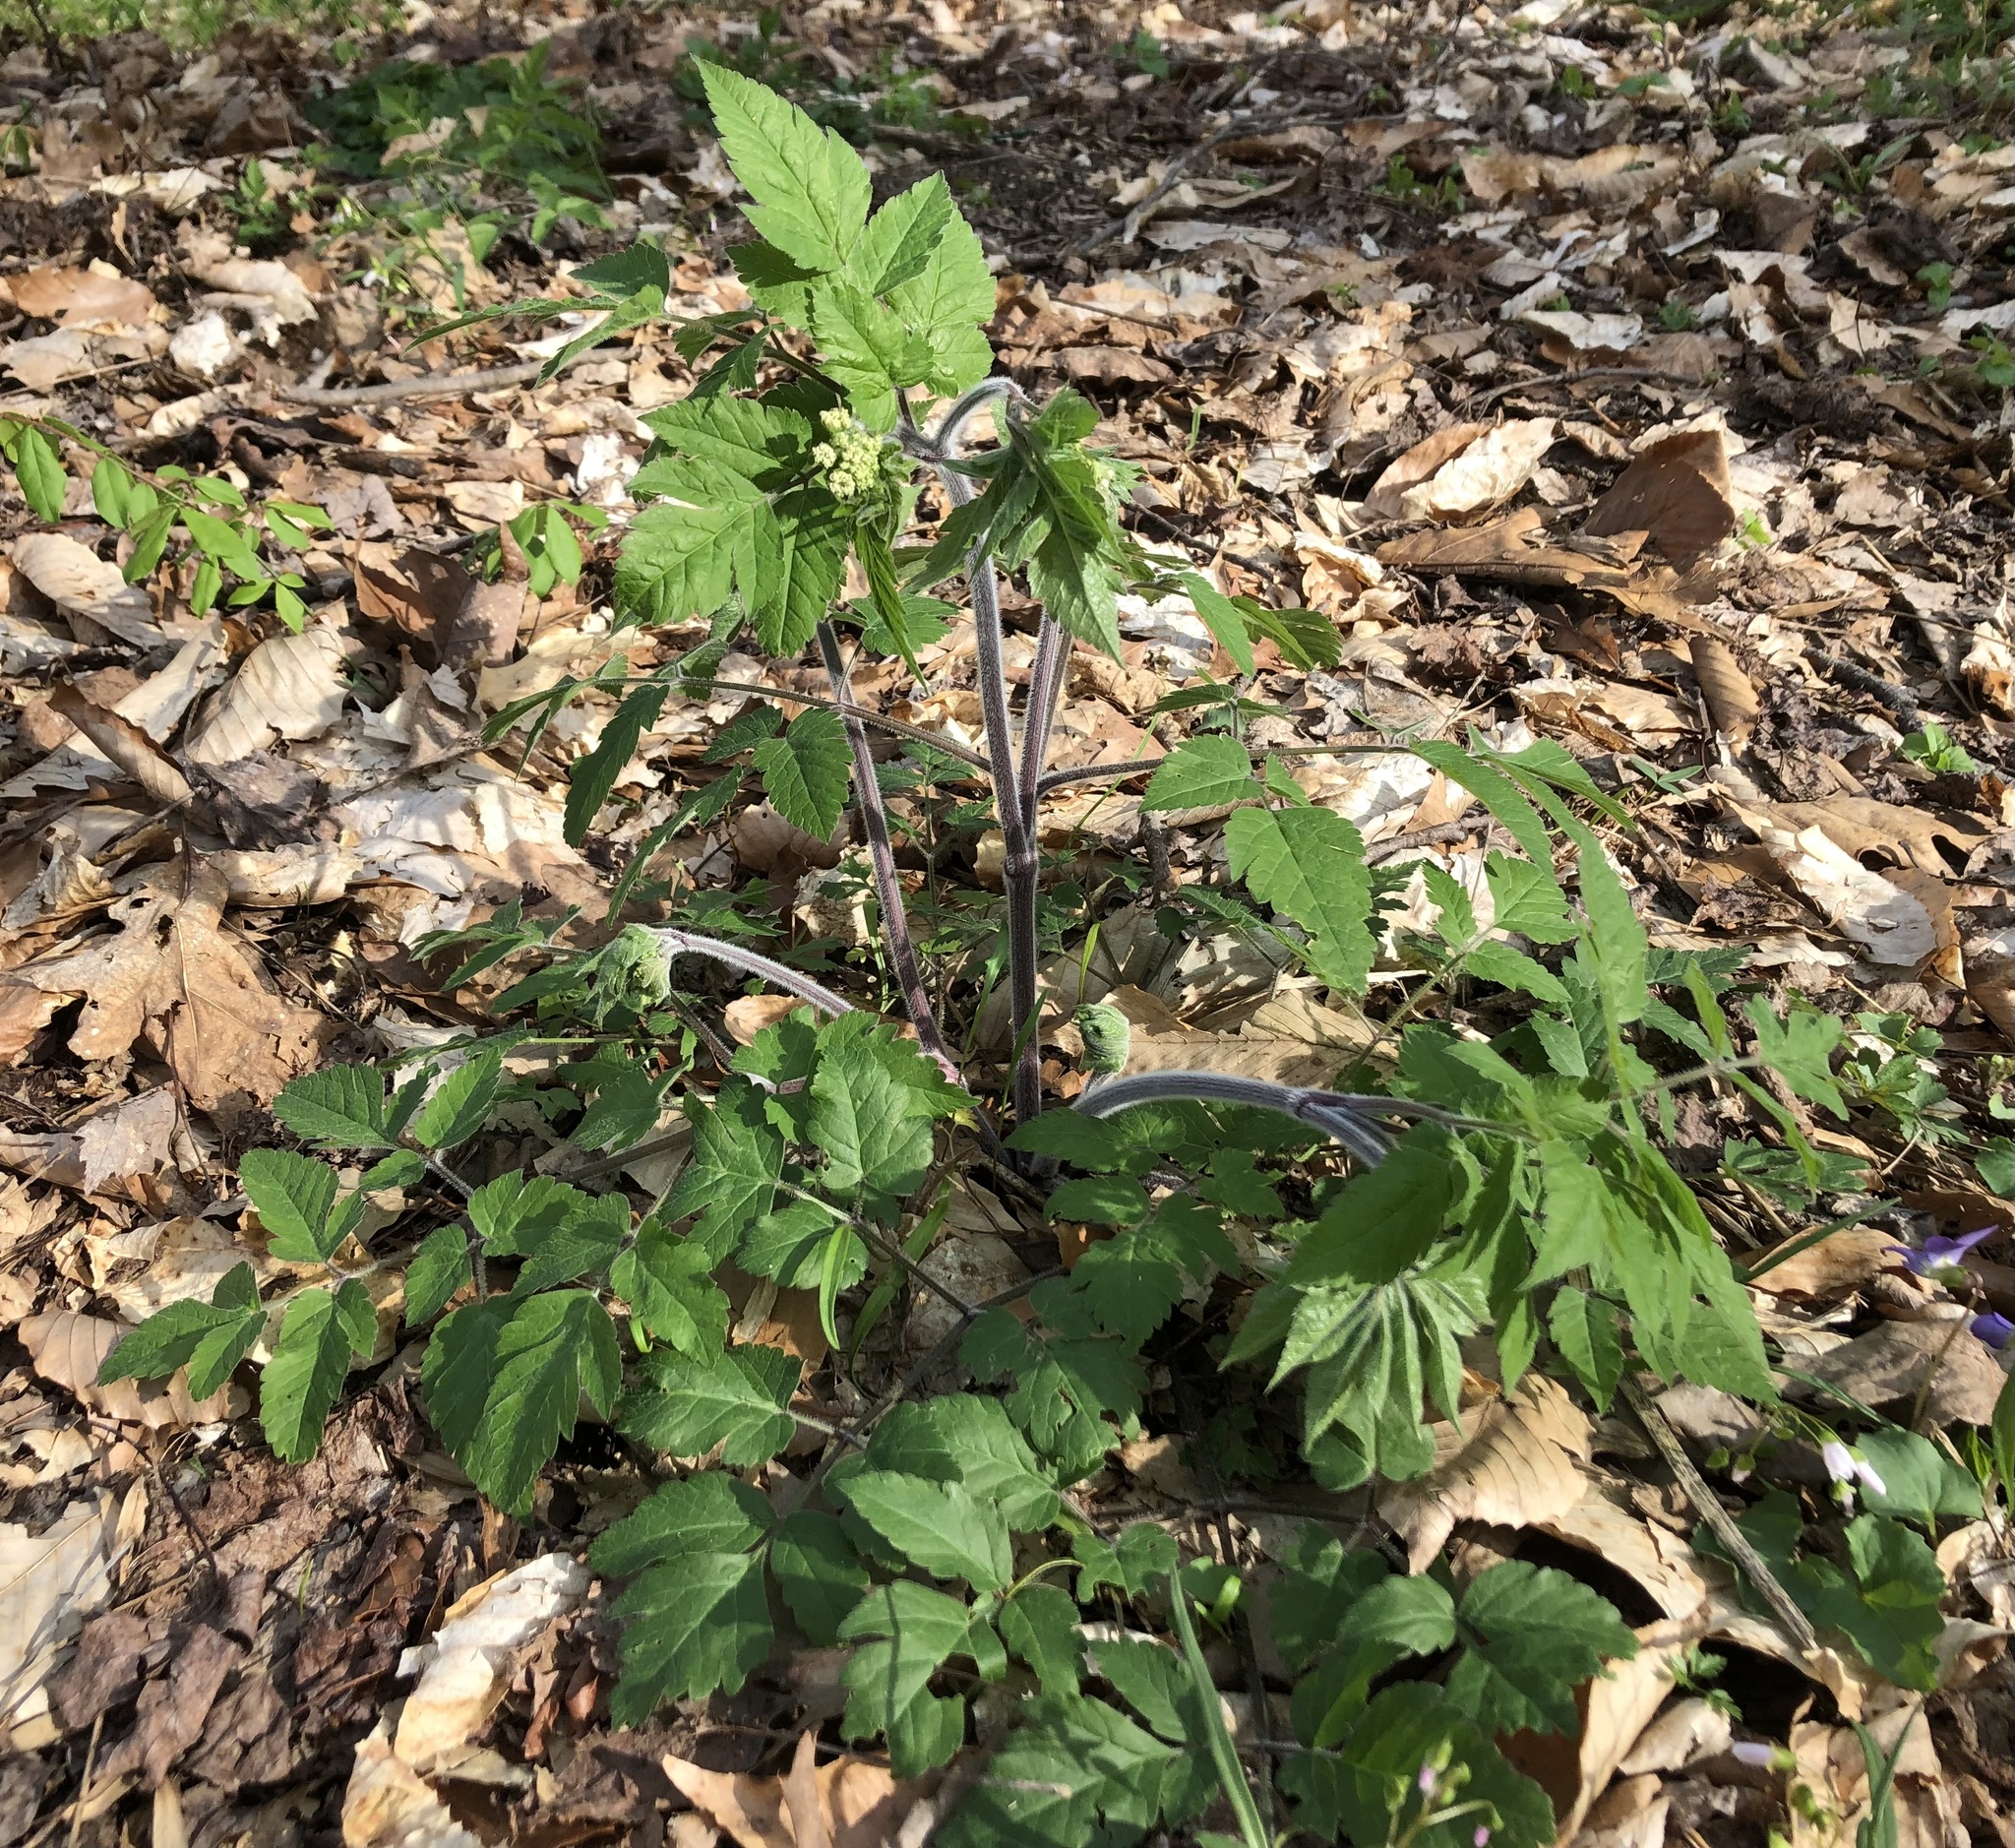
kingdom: Plantae
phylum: Tracheophyta
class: Magnoliopsida
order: Apiales
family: Apiaceae
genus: Osmorhiza
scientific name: Osmorhiza claytonii
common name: Hairy sweet cicely
